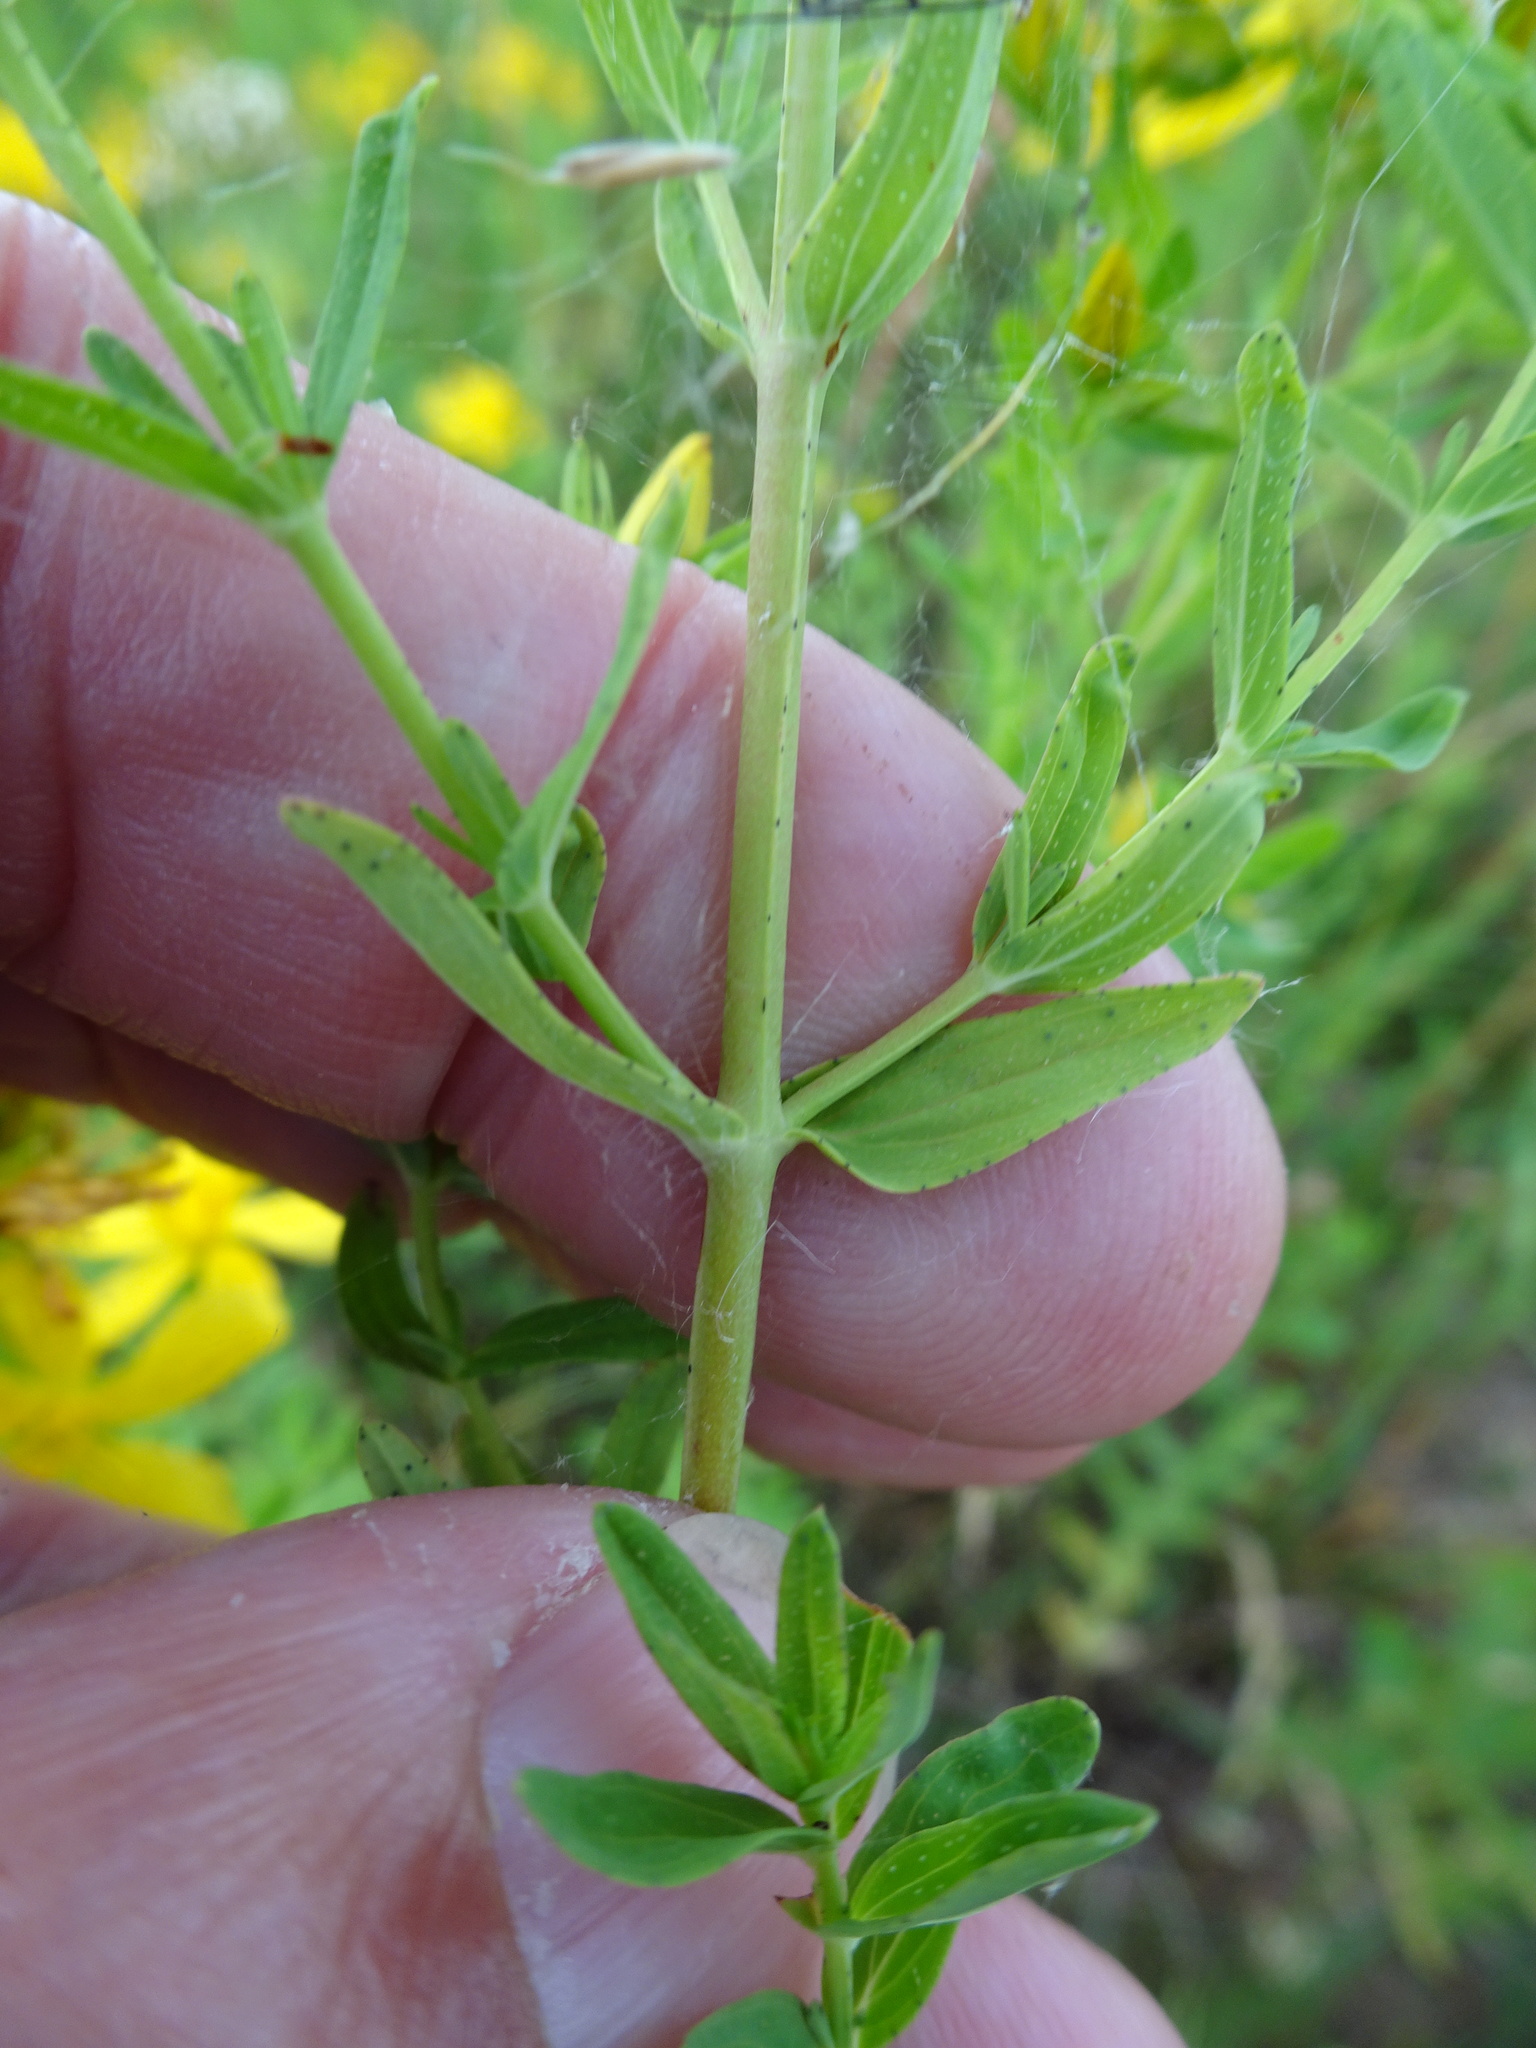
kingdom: Plantae
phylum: Tracheophyta
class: Magnoliopsida
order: Malpighiales
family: Hypericaceae
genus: Hypericum
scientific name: Hypericum perforatum
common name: Common st. johnswort
